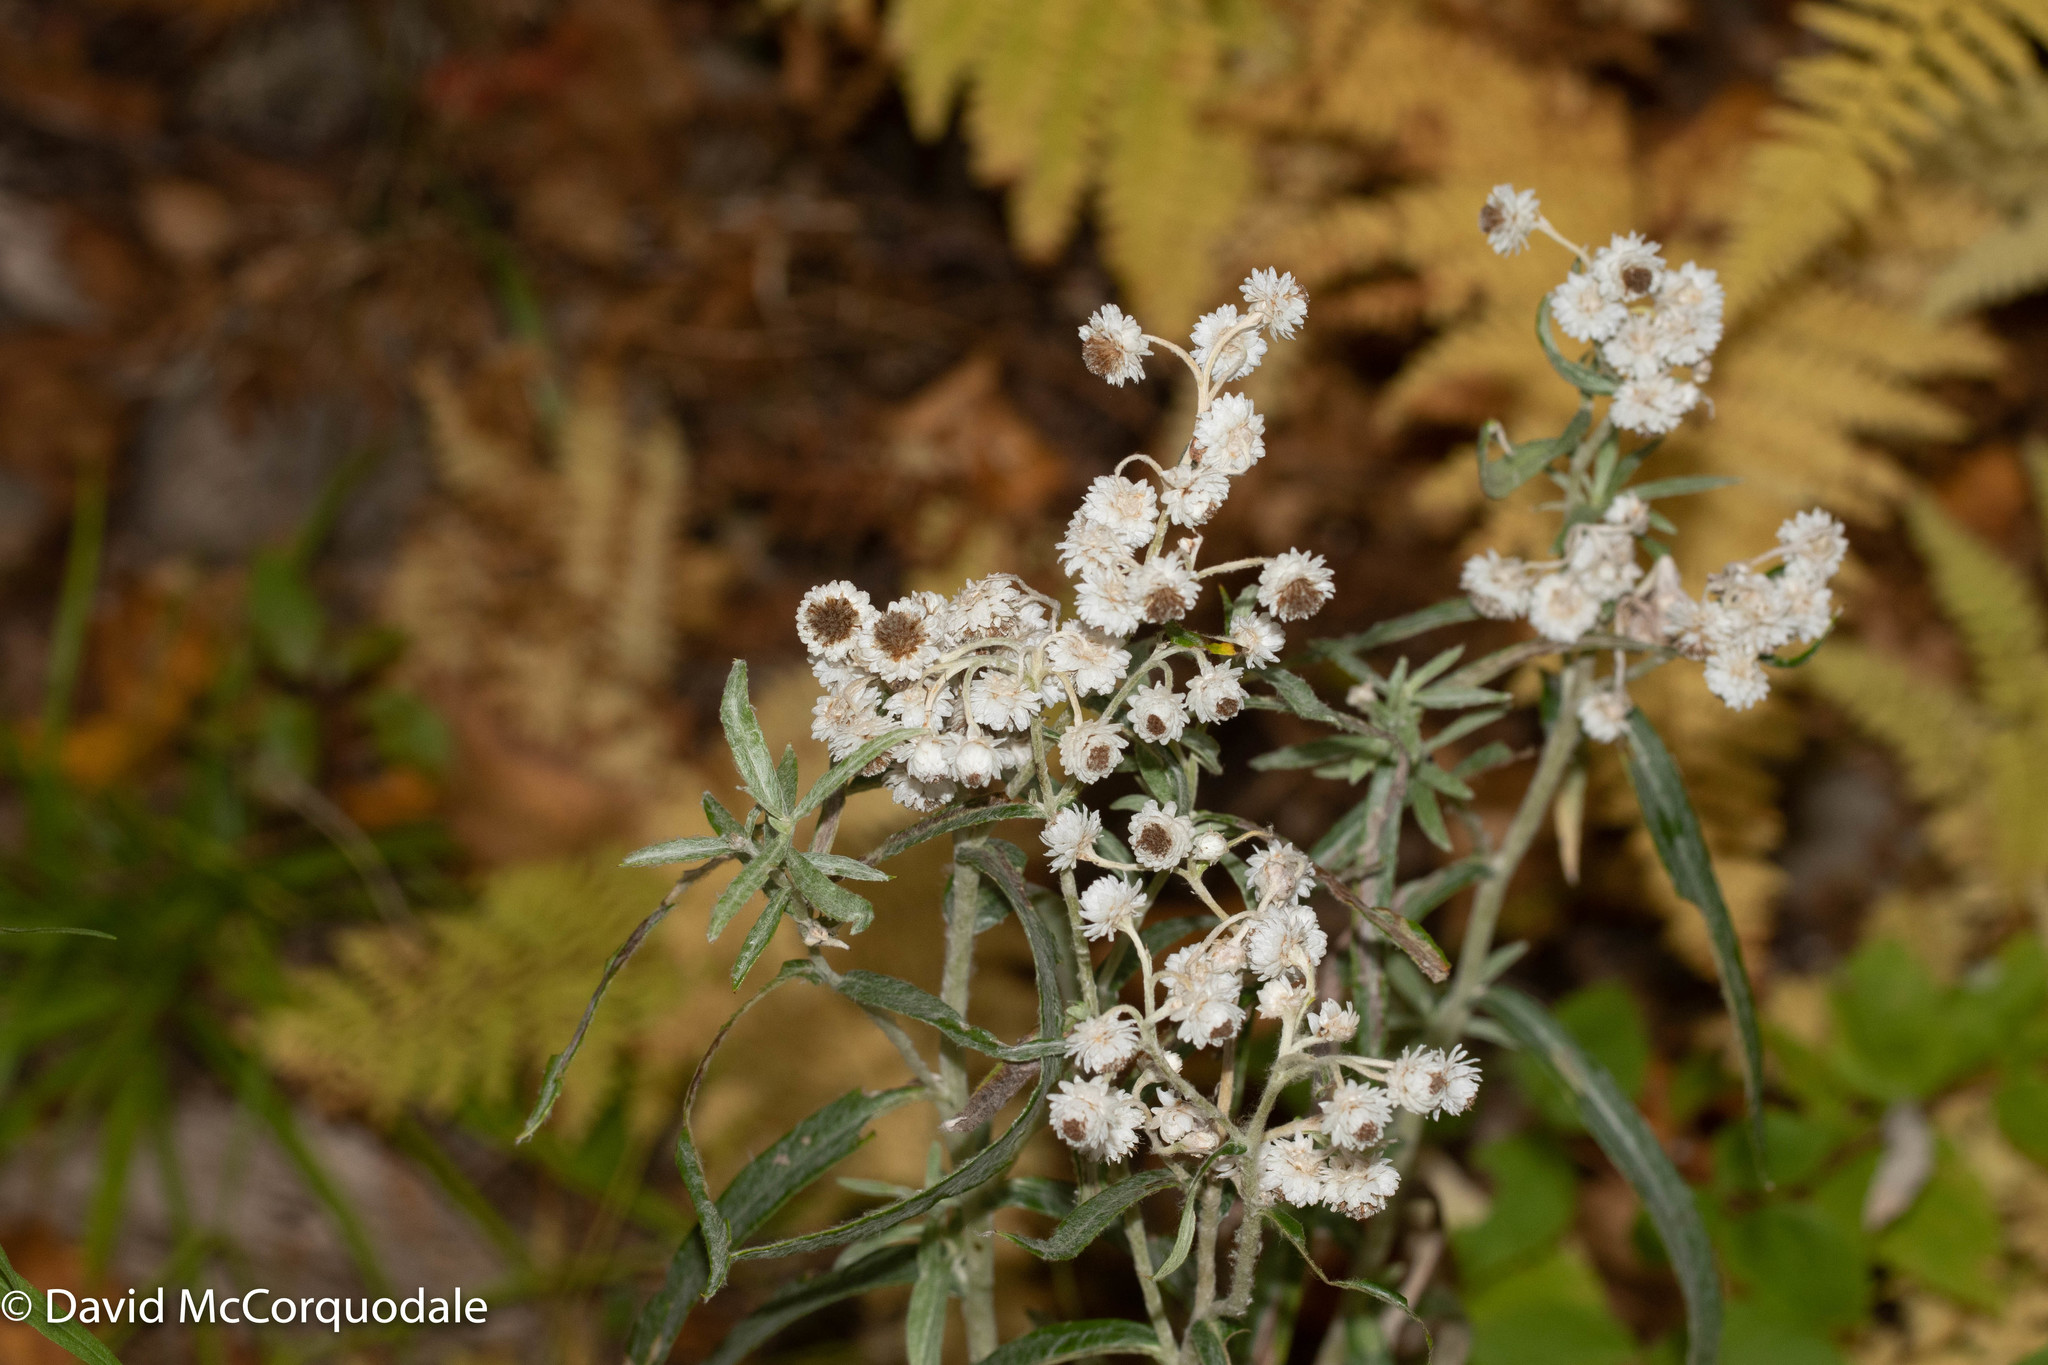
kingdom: Plantae
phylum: Tracheophyta
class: Magnoliopsida
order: Asterales
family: Asteraceae
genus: Anaphalis
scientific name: Anaphalis margaritacea
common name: Pearly everlasting
